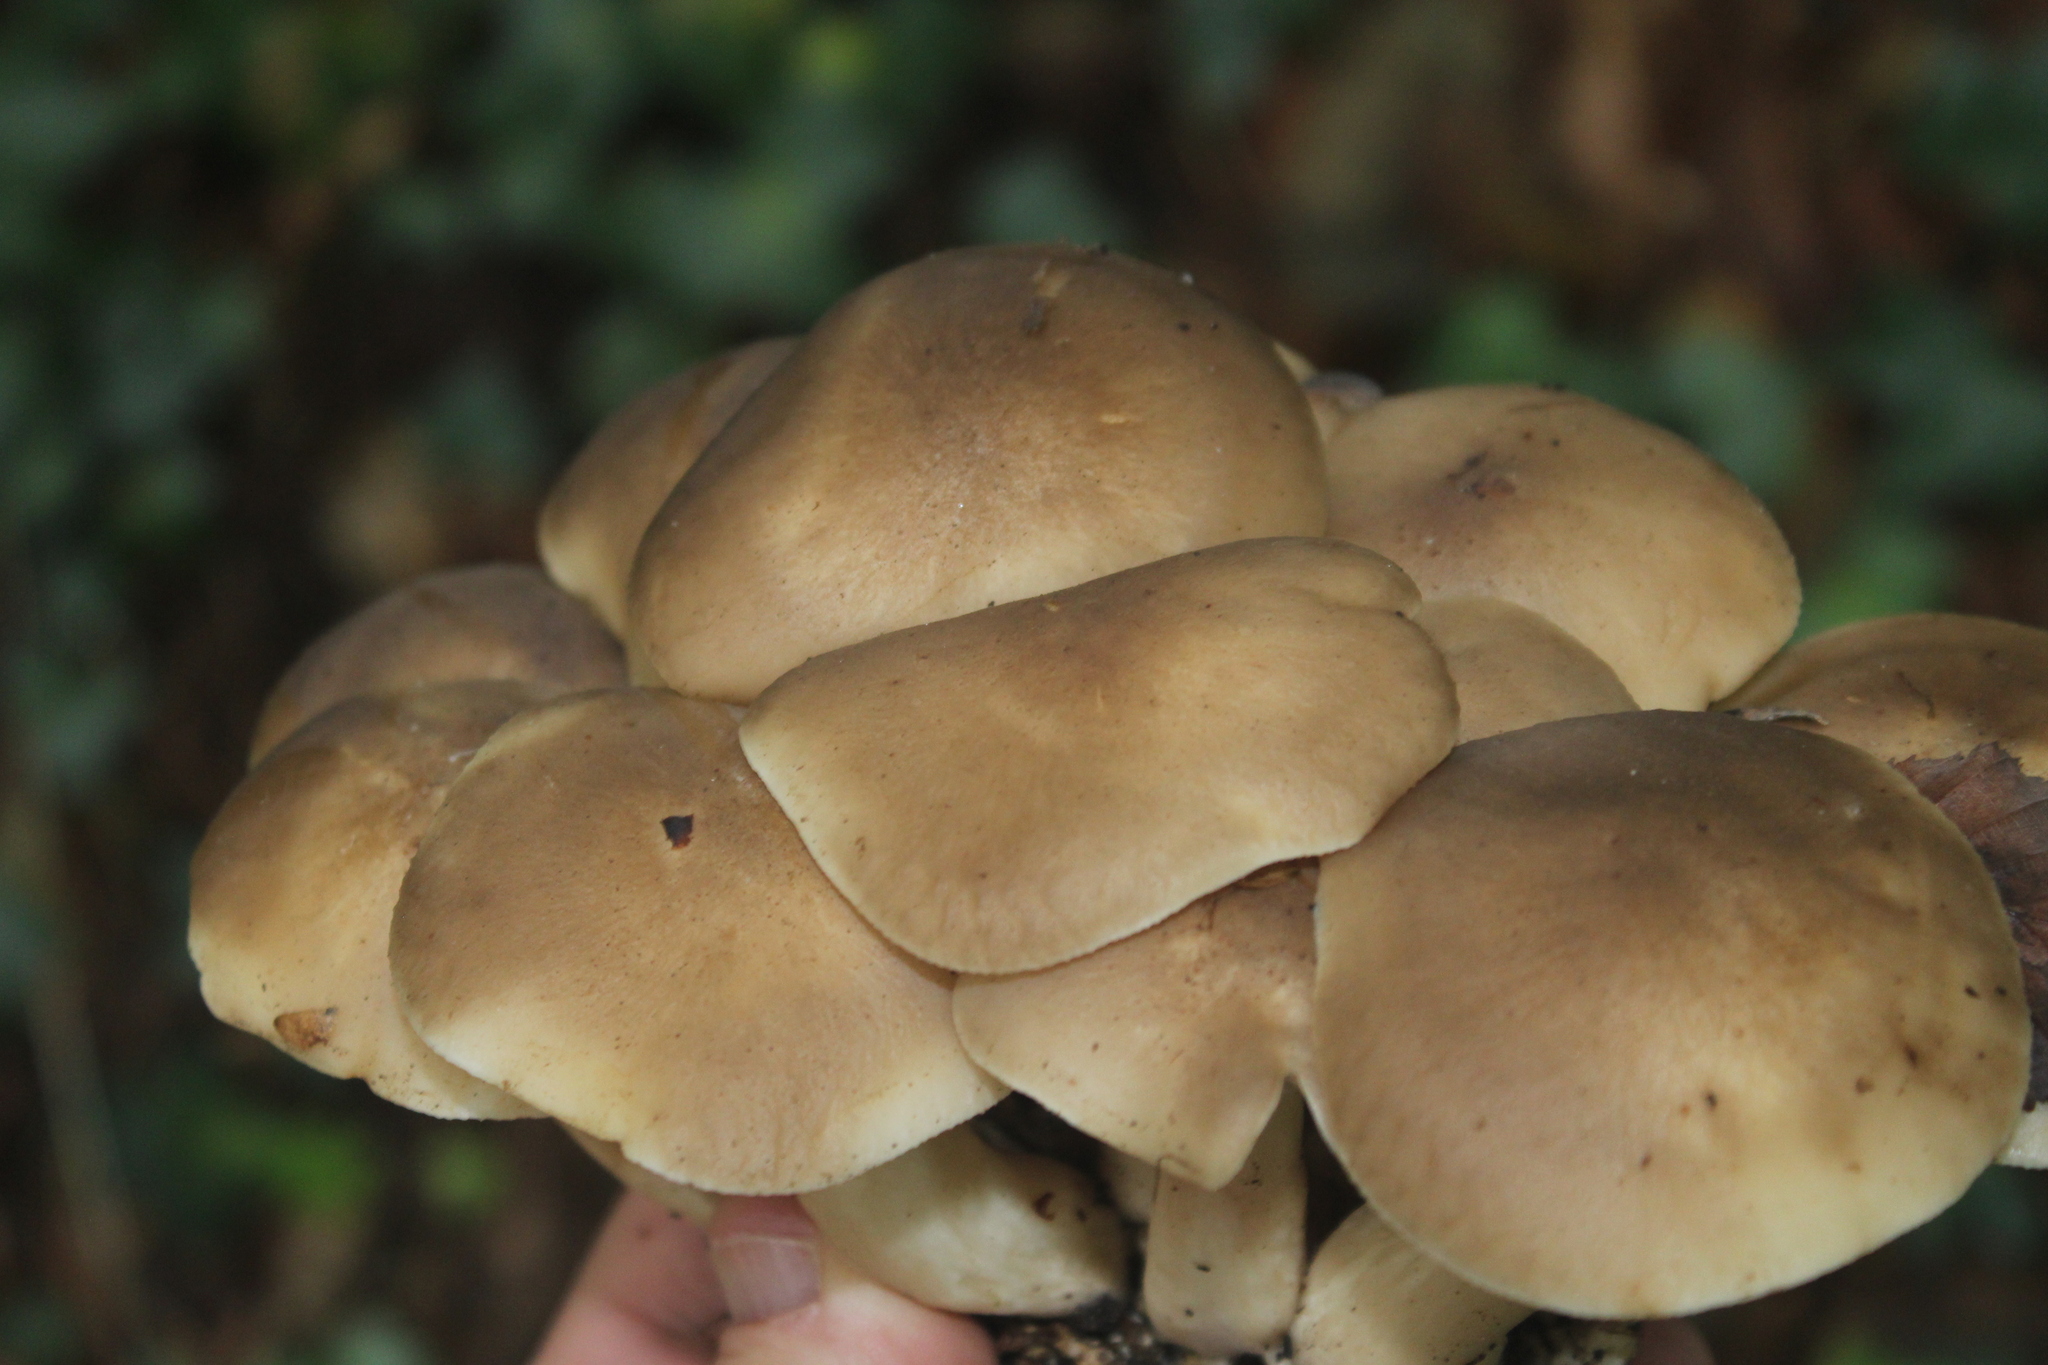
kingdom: Fungi
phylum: Basidiomycota
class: Agaricomycetes
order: Agaricales
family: Lyophyllaceae
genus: Lyophyllum
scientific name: Lyophyllum decastes
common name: Clustered domecap
